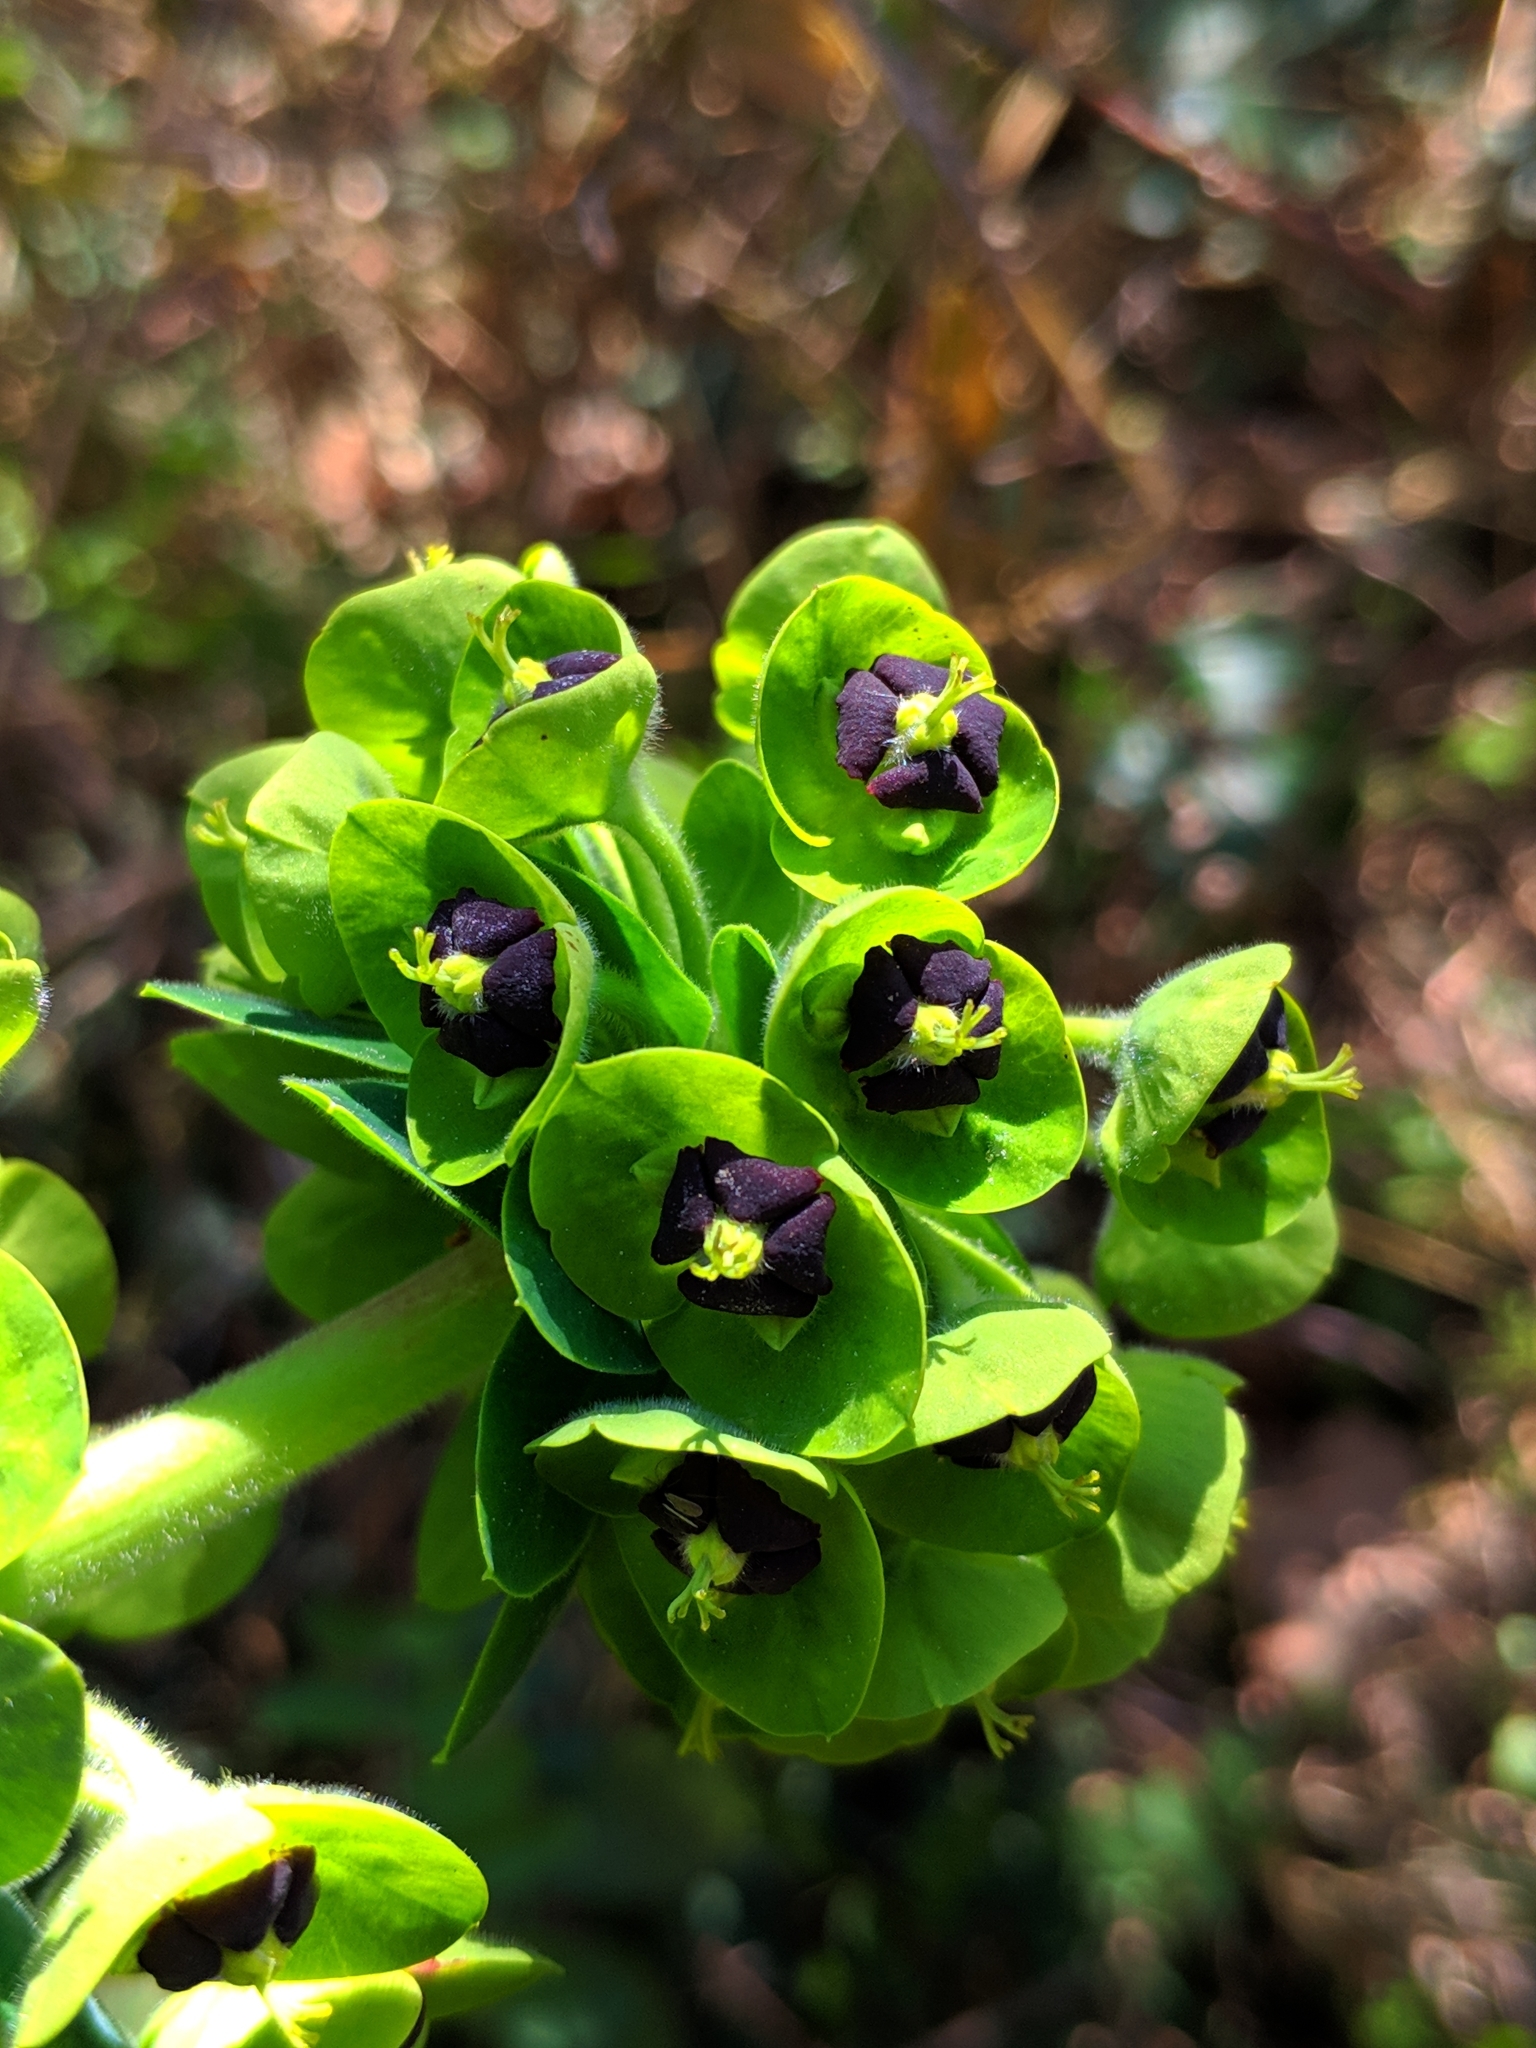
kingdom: Plantae
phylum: Tracheophyta
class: Magnoliopsida
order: Malpighiales
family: Euphorbiaceae
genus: Euphorbia
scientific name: Euphorbia characias
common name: Mediterranean spurge
